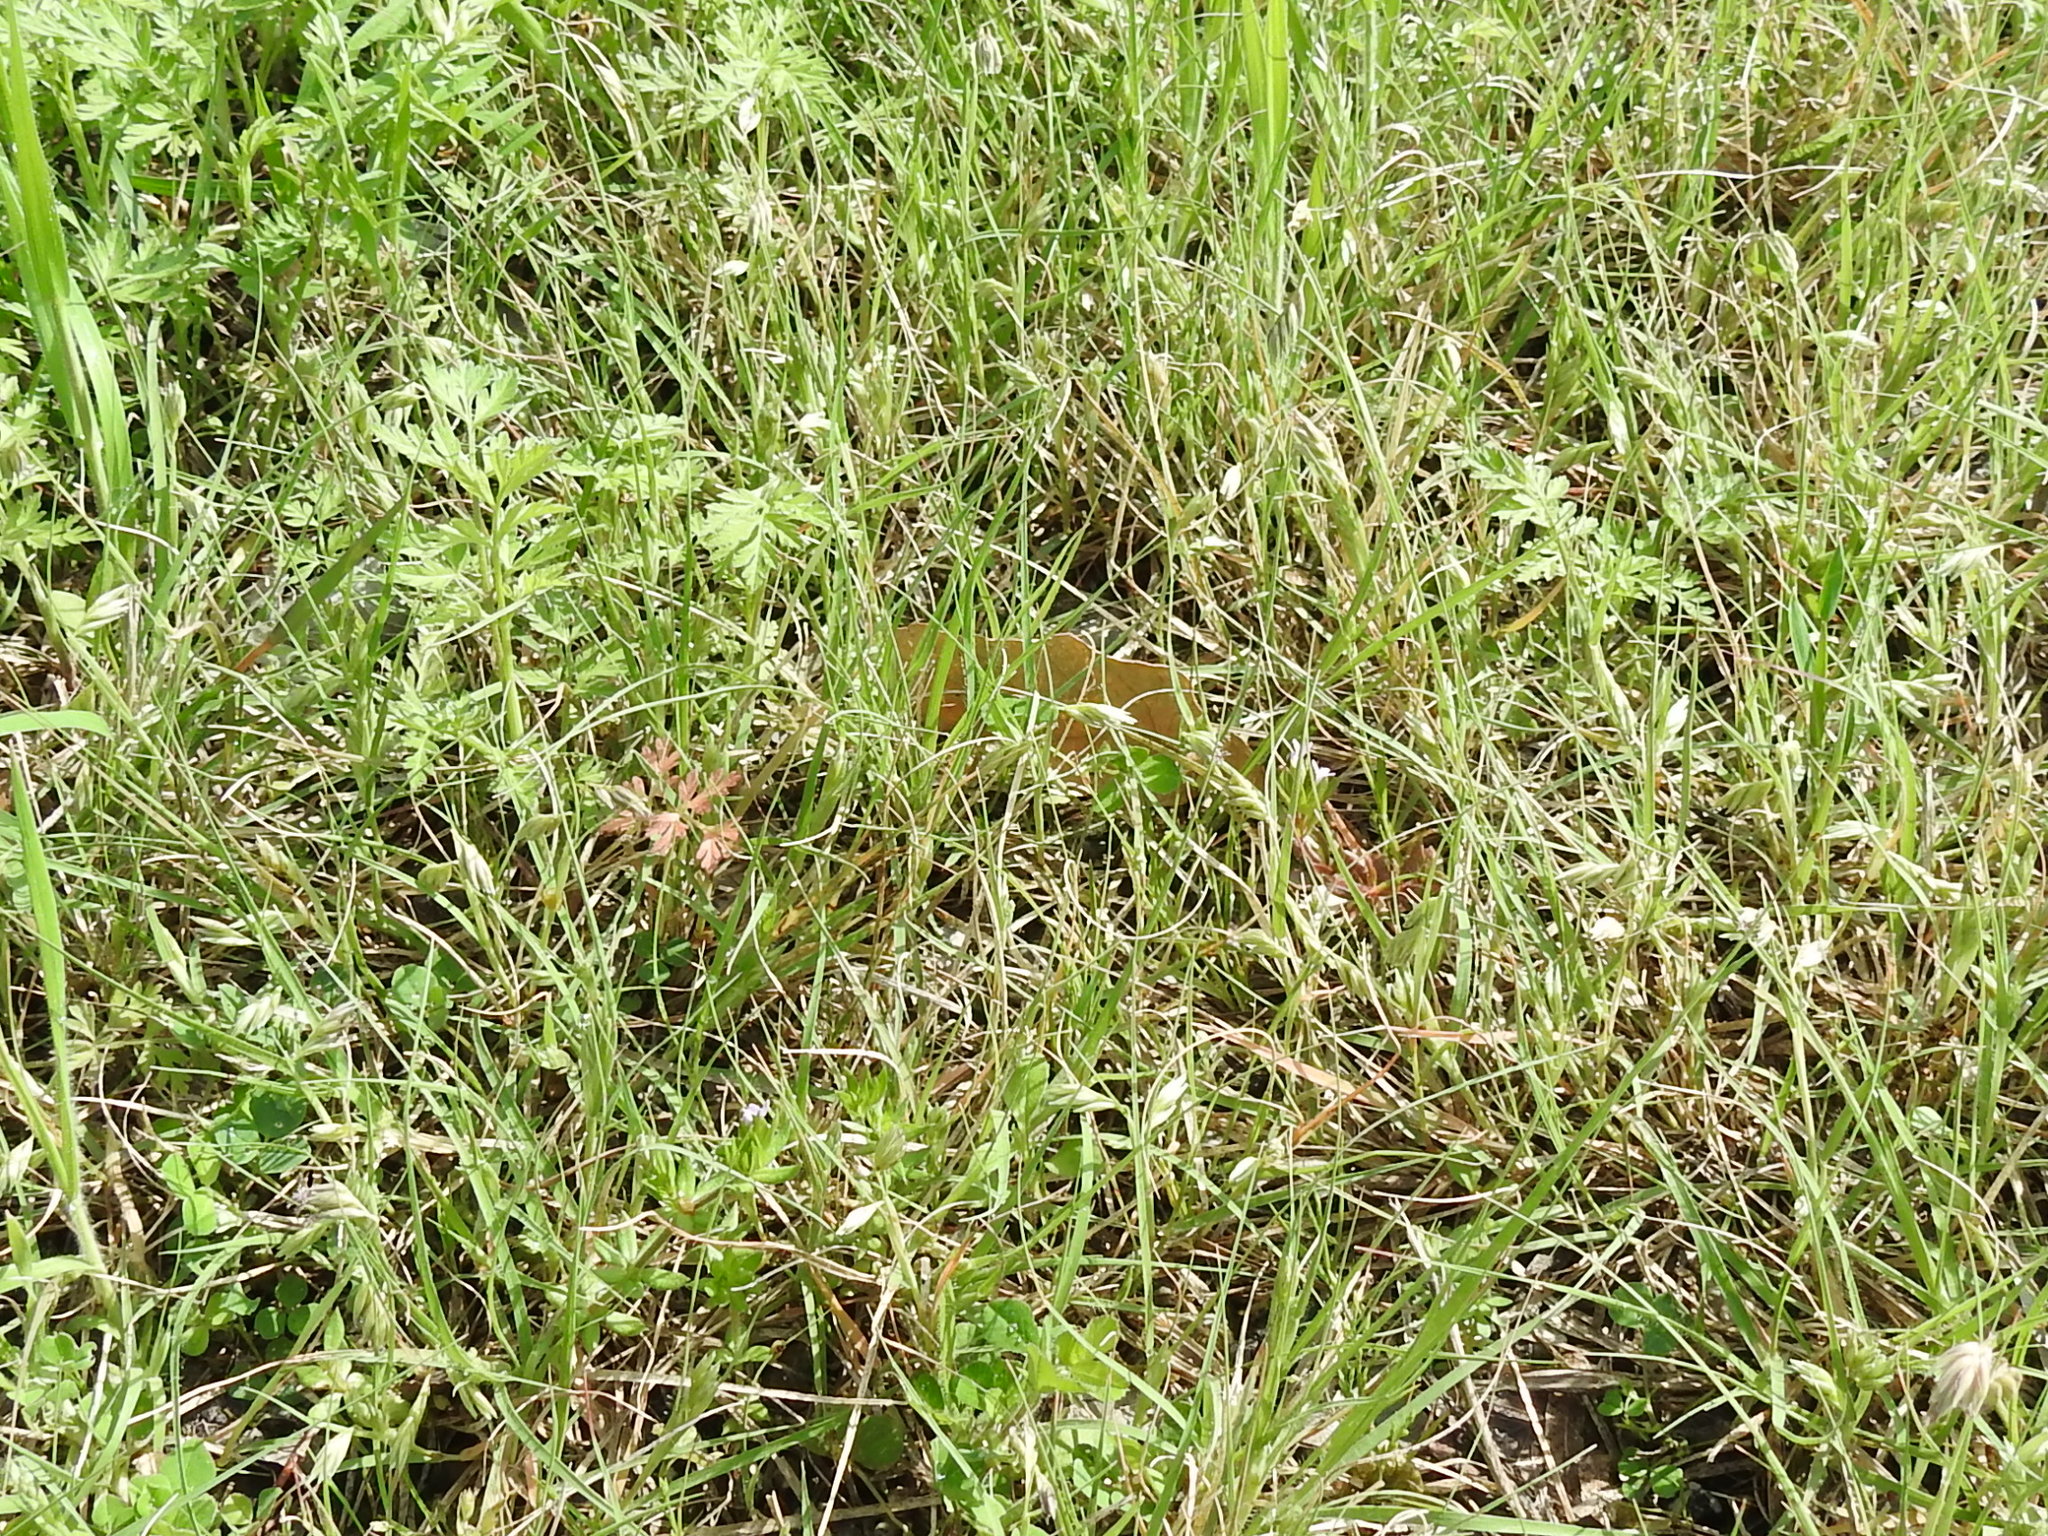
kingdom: Plantae
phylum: Tracheophyta
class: Liliopsida
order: Poales
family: Poaceae
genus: Bouteloua
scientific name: Bouteloua dactyloides
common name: Buffalo grass
